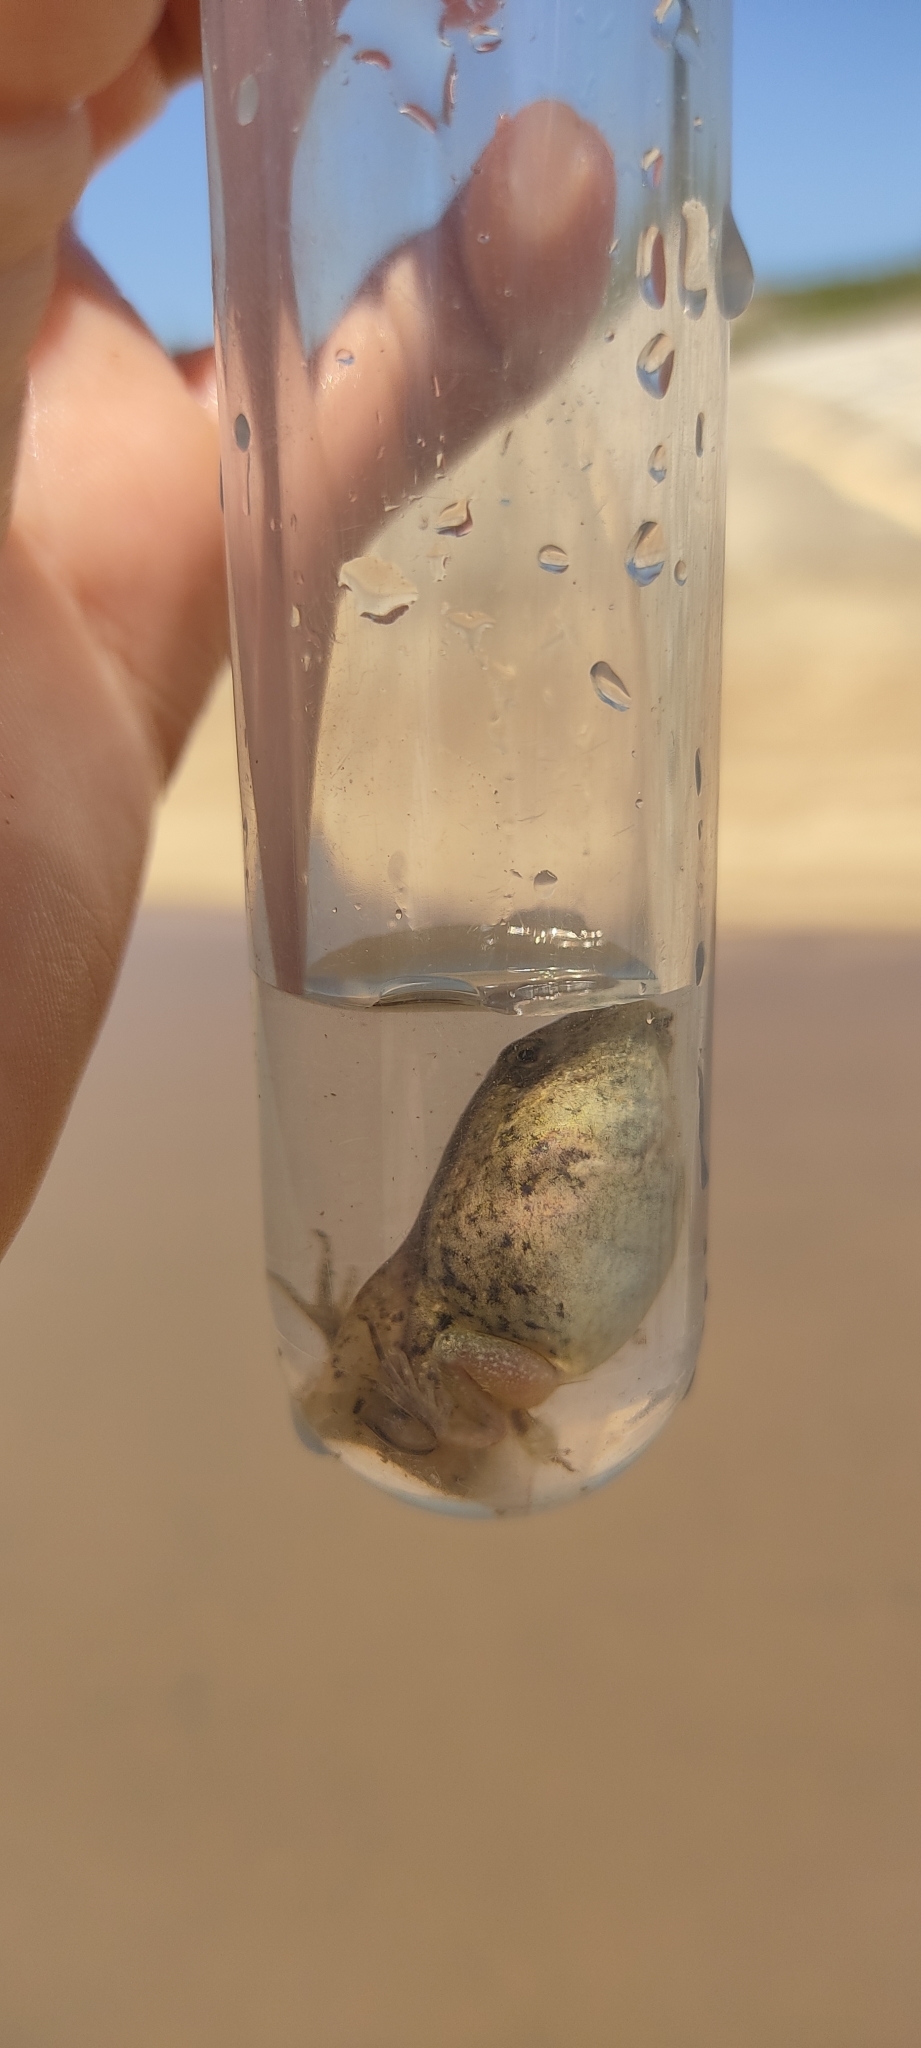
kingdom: Animalia
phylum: Chordata
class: Amphibia
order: Anura
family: Pelodytidae
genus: Pelodytes
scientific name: Pelodytes punctatus
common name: Parsley frog
